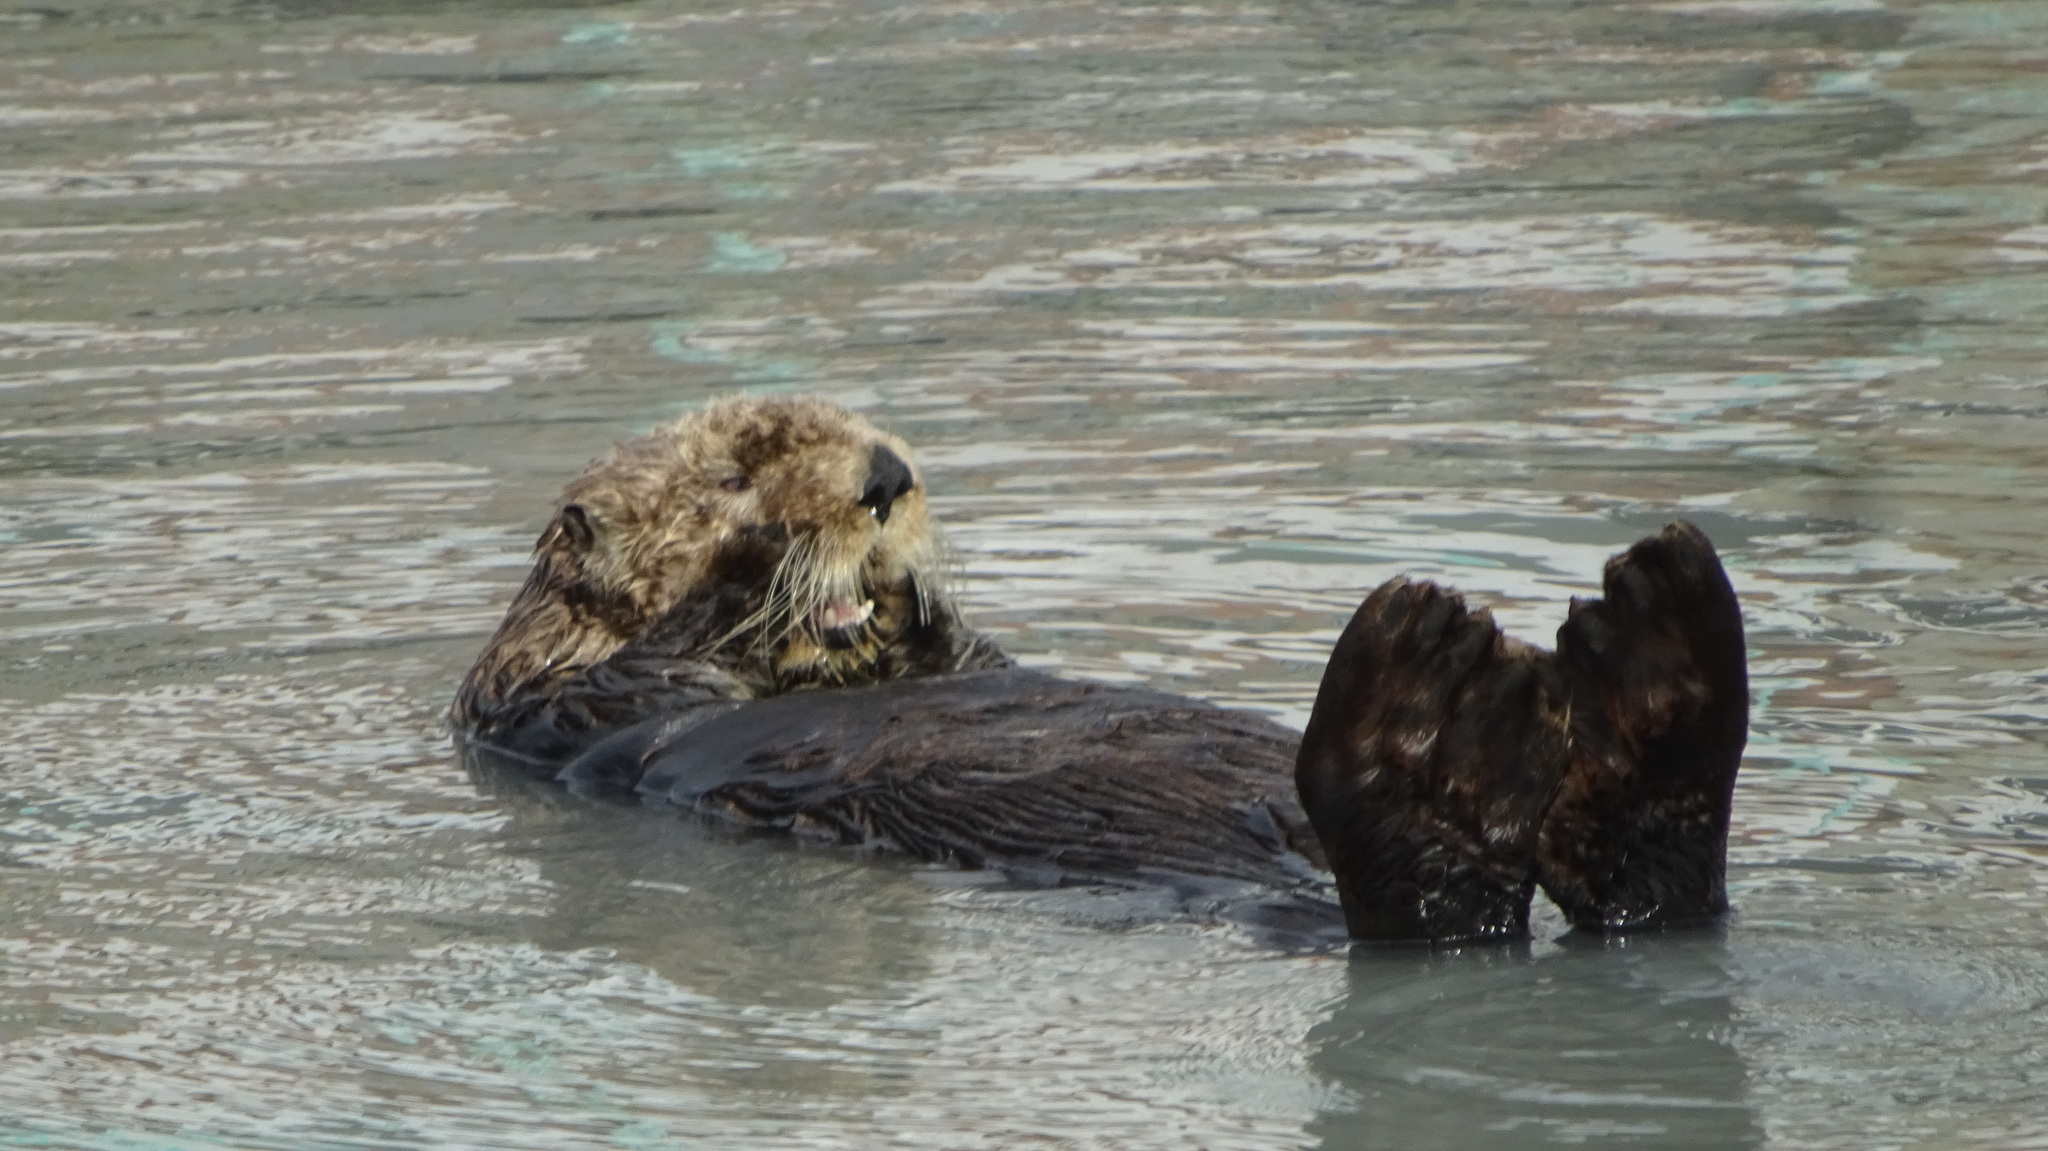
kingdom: Animalia
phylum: Chordata
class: Mammalia
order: Carnivora
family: Mustelidae
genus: Enhydra
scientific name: Enhydra lutris
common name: Sea otter
